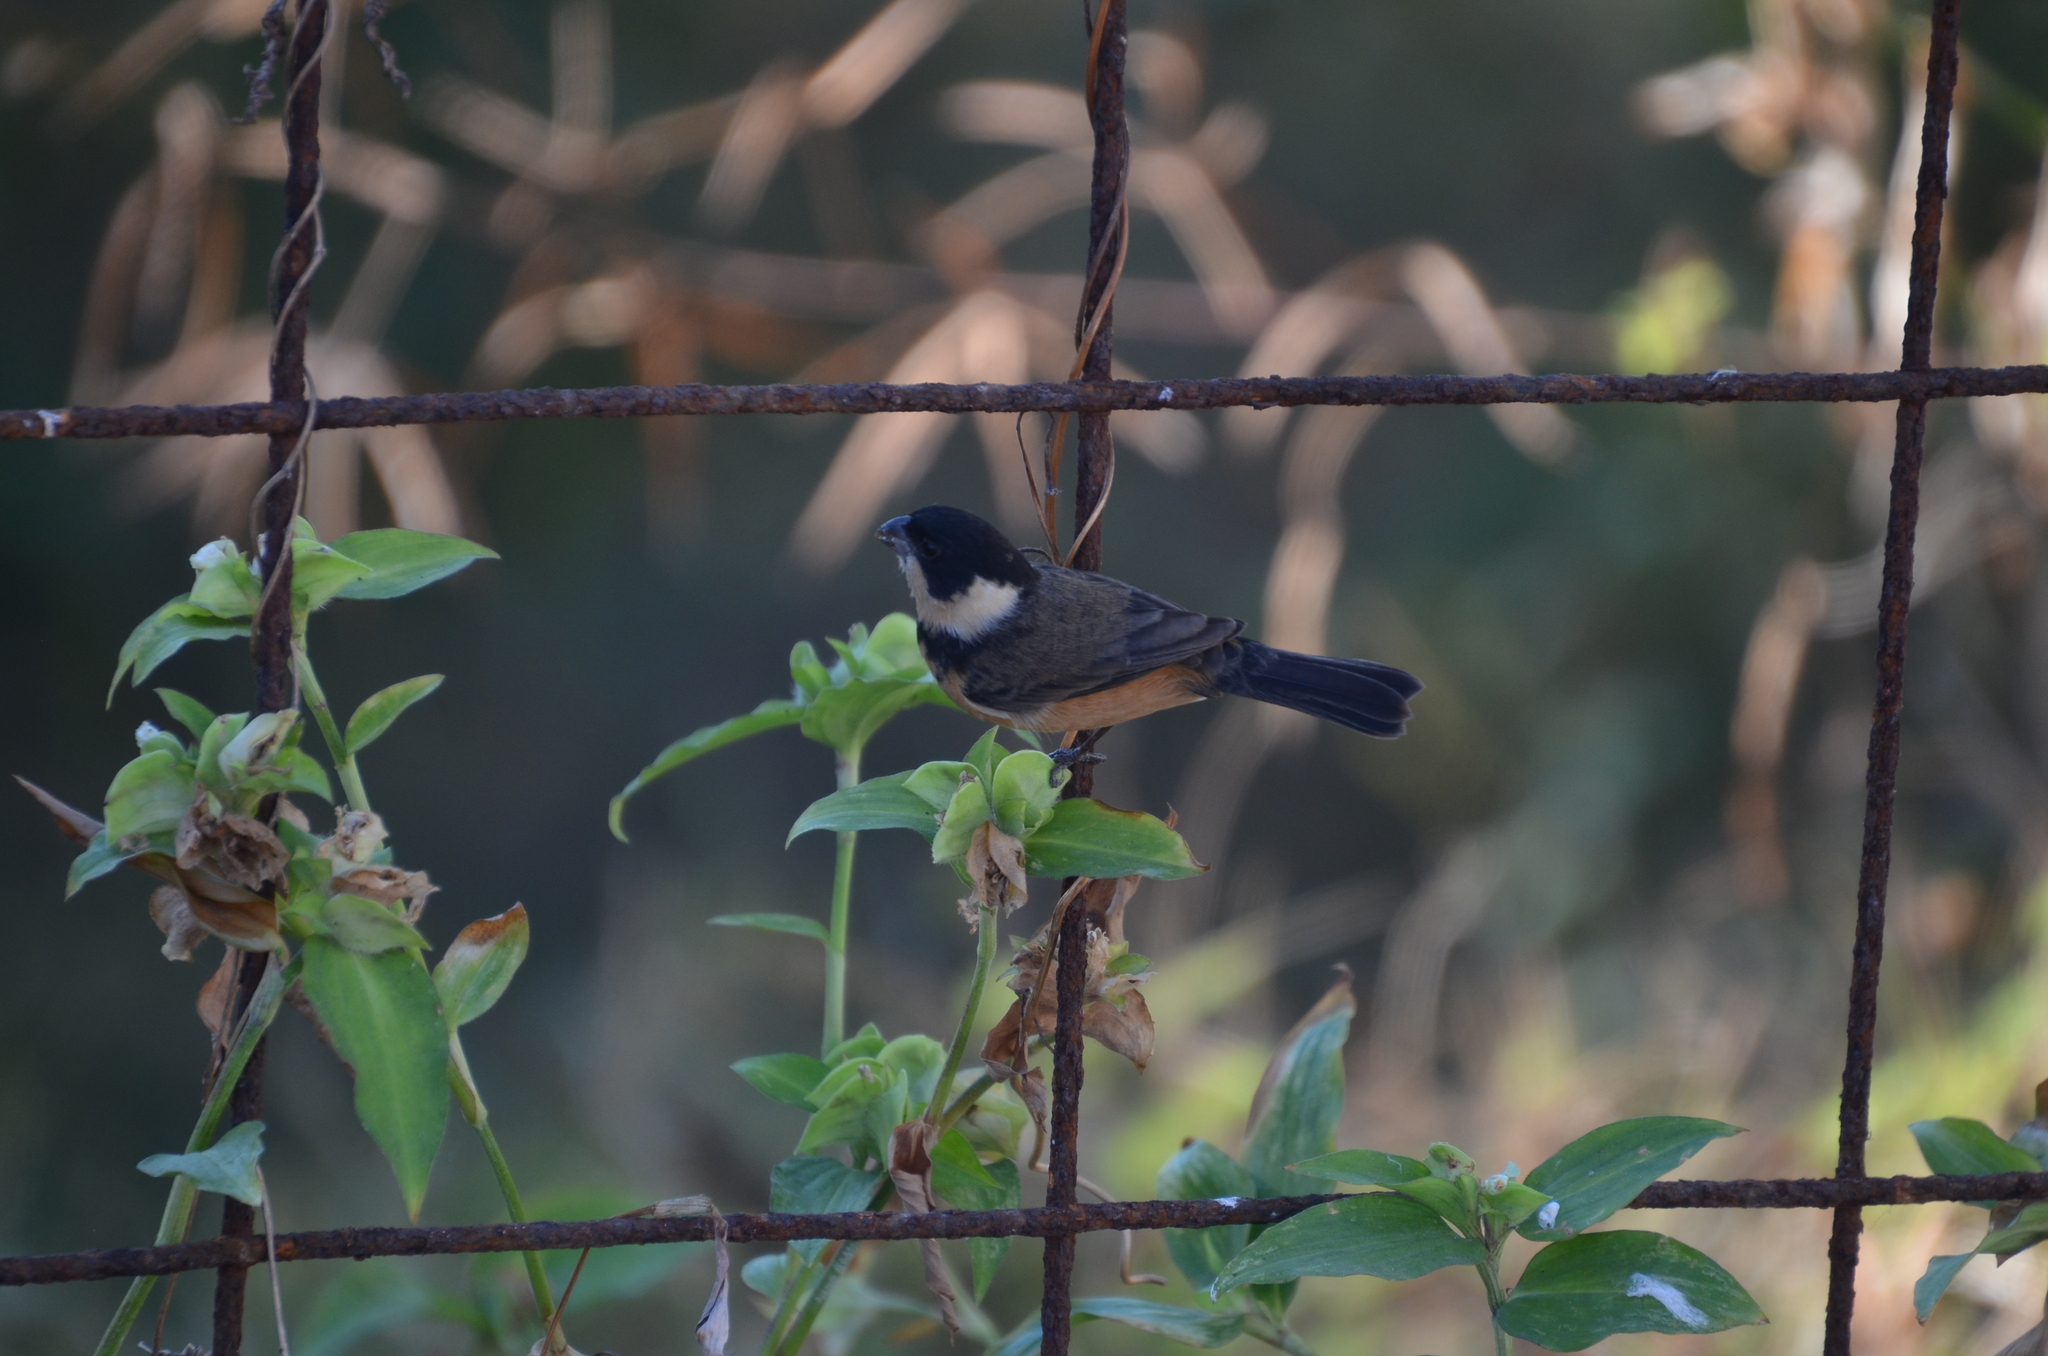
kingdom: Animalia
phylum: Chordata
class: Aves
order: Passeriformes
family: Thraupidae
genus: Sporophila
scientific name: Sporophila torqueola
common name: White-collared seedeater
